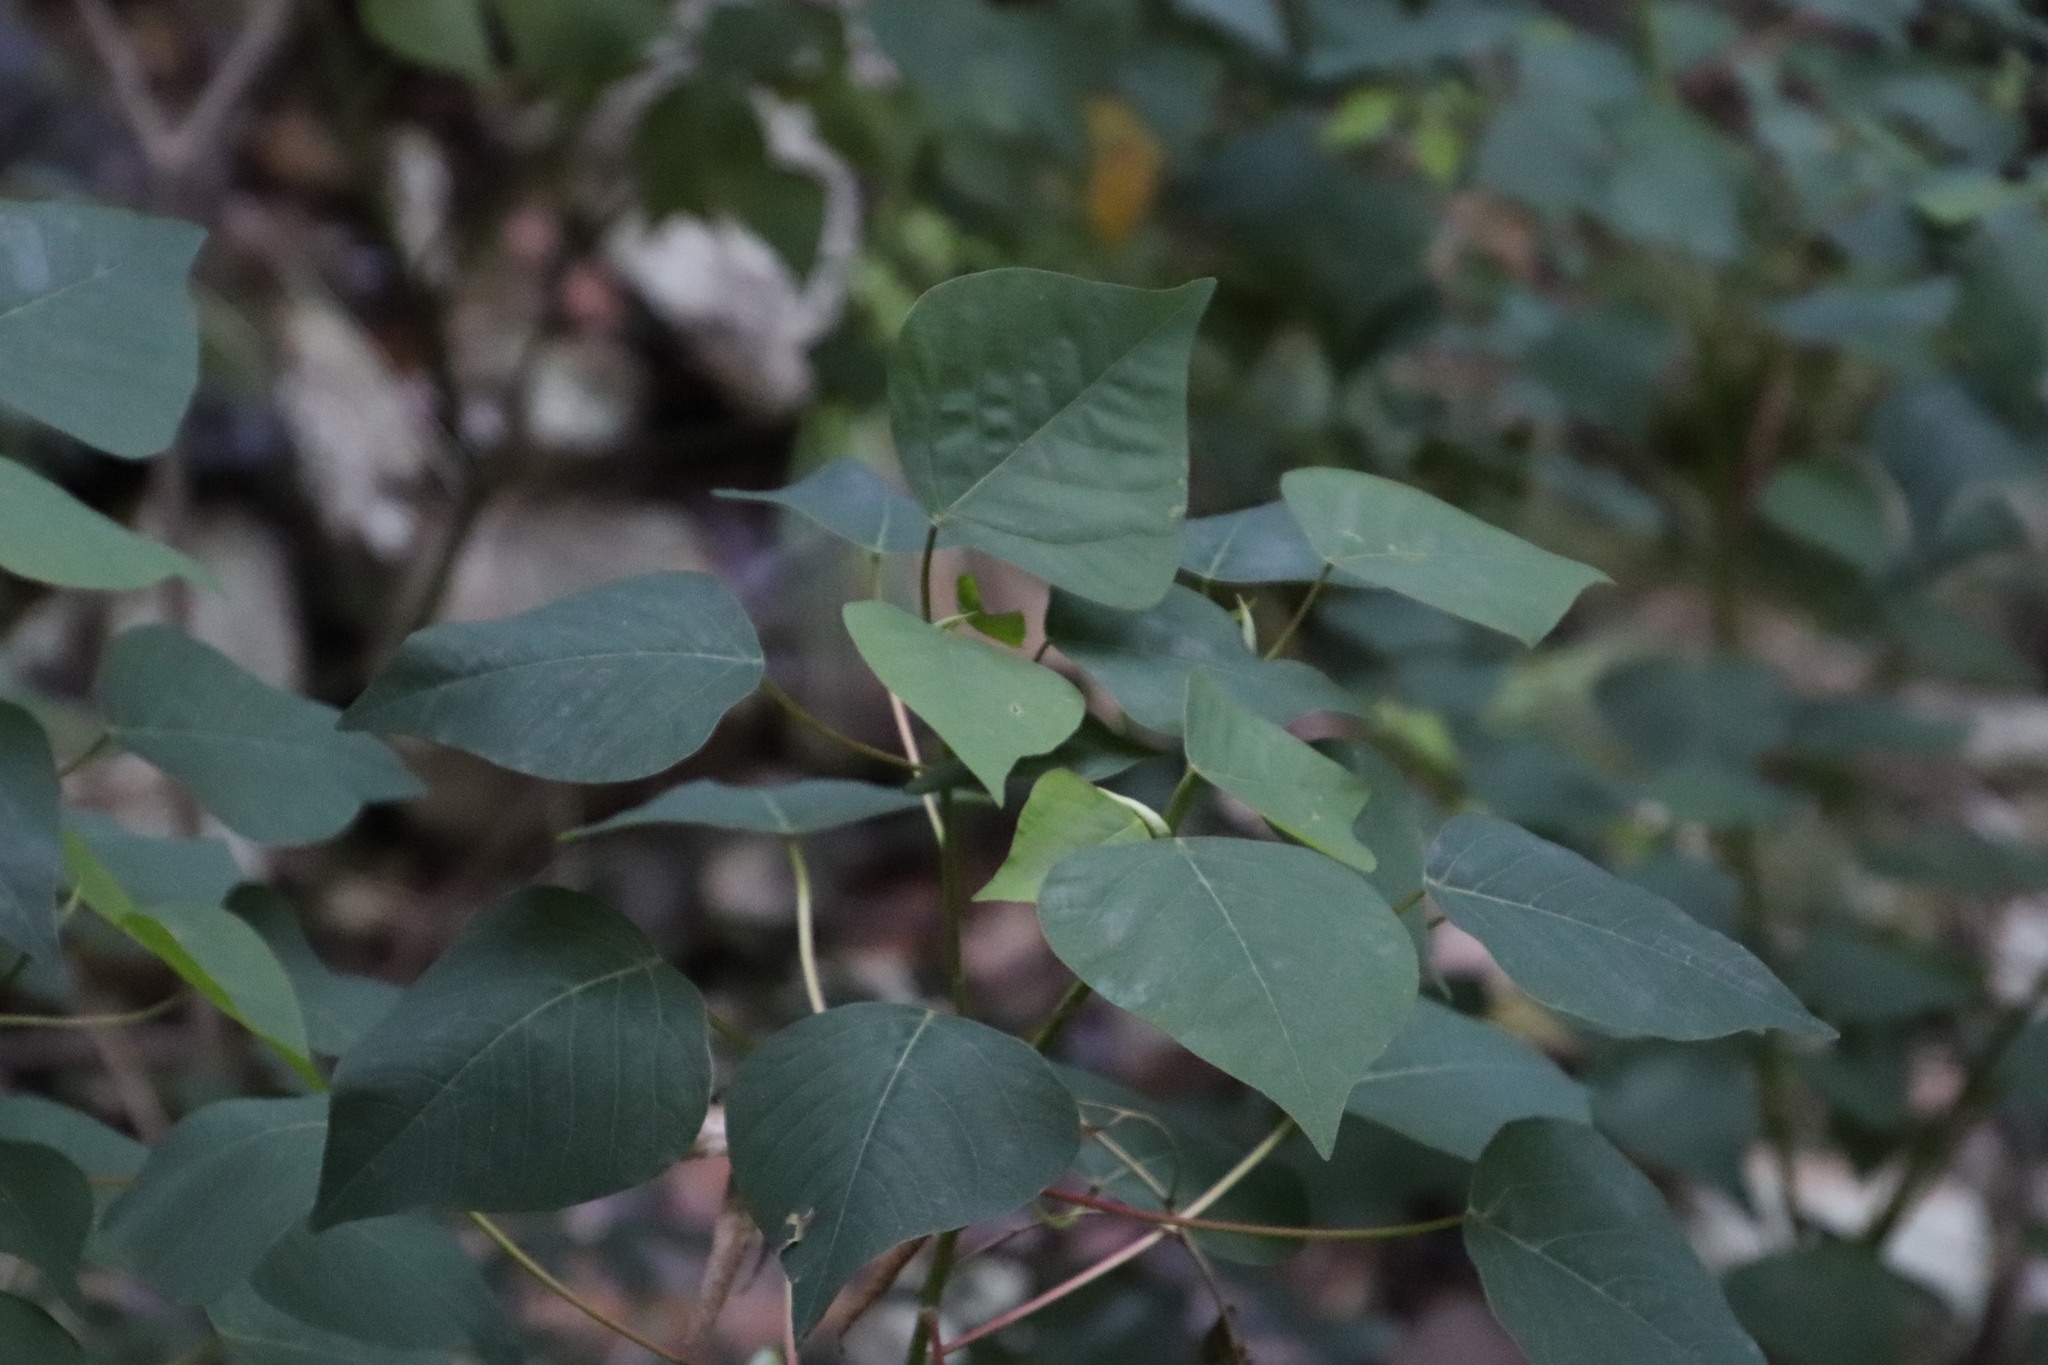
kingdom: Plantae
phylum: Tracheophyta
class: Magnoliopsida
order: Malpighiales
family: Euphorbiaceae
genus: Homalanthus
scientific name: Homalanthus populifolius
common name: Queensland poplar
